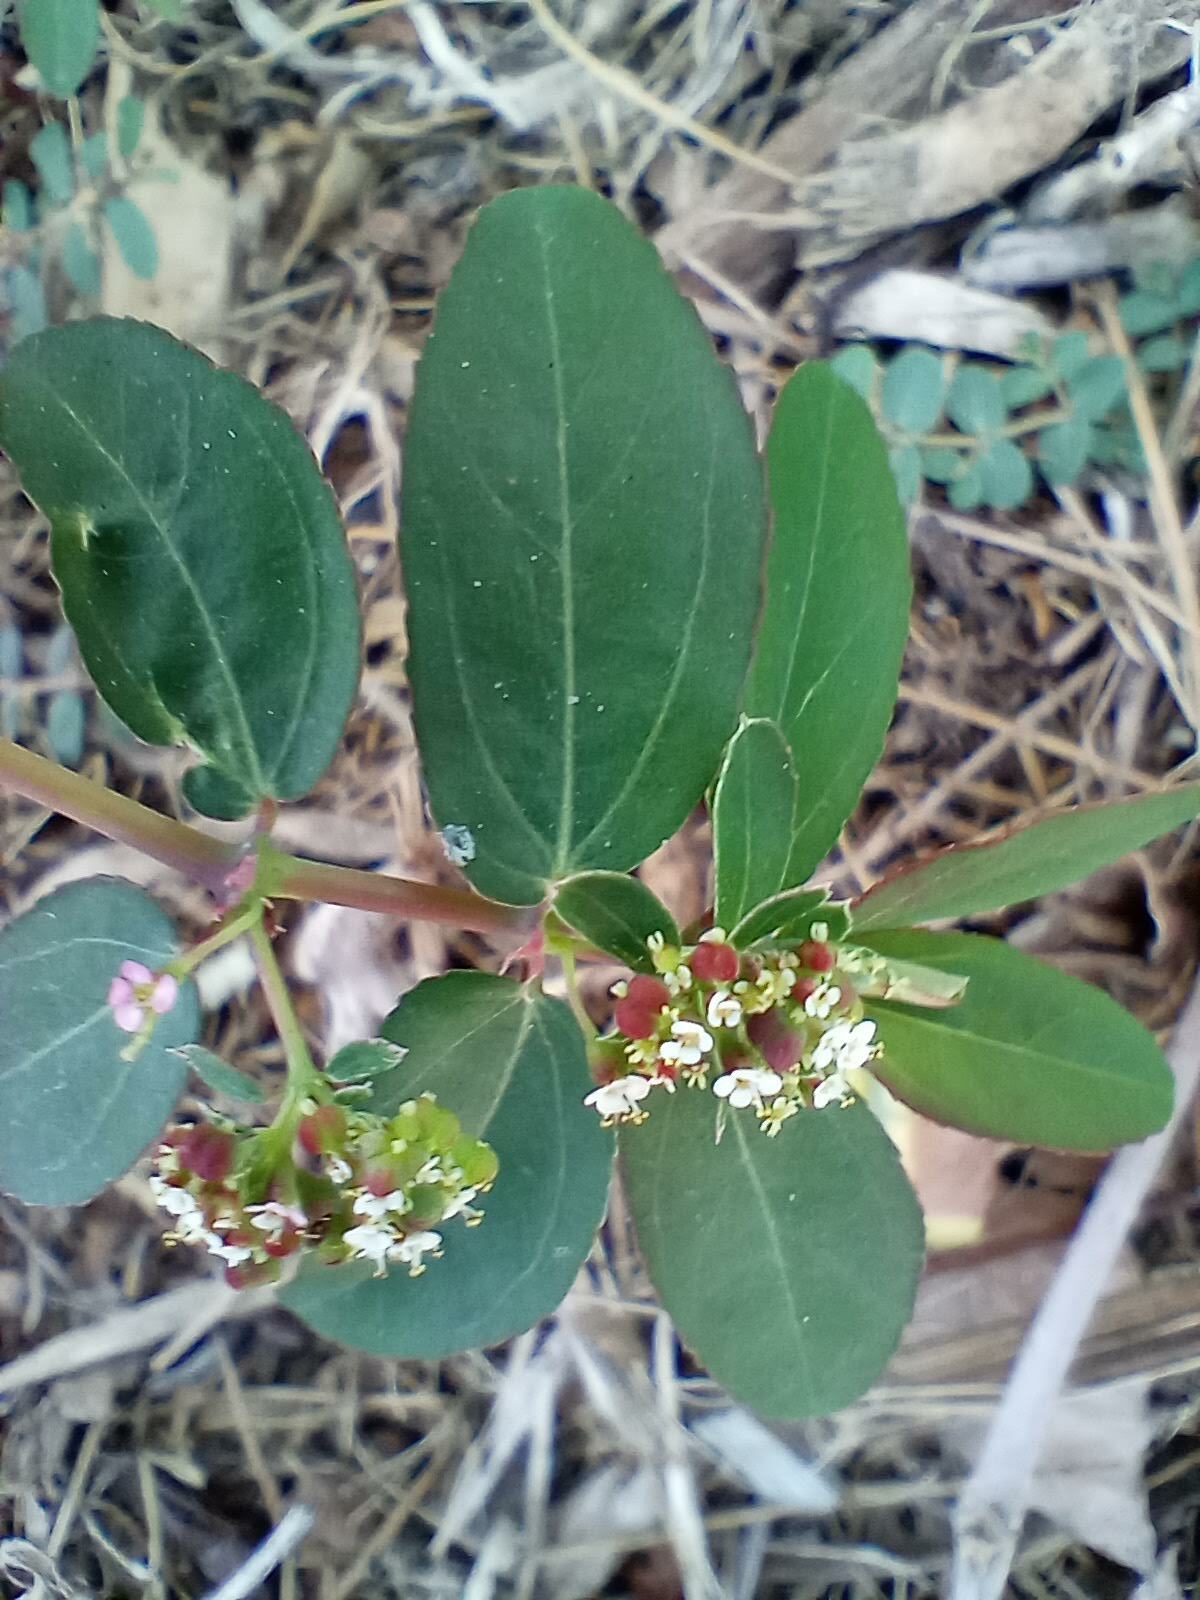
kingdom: Plantae
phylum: Tracheophyta
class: Magnoliopsida
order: Malpighiales
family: Euphorbiaceae
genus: Euphorbia
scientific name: Euphorbia hypericifolia
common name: Graceful sandmat
